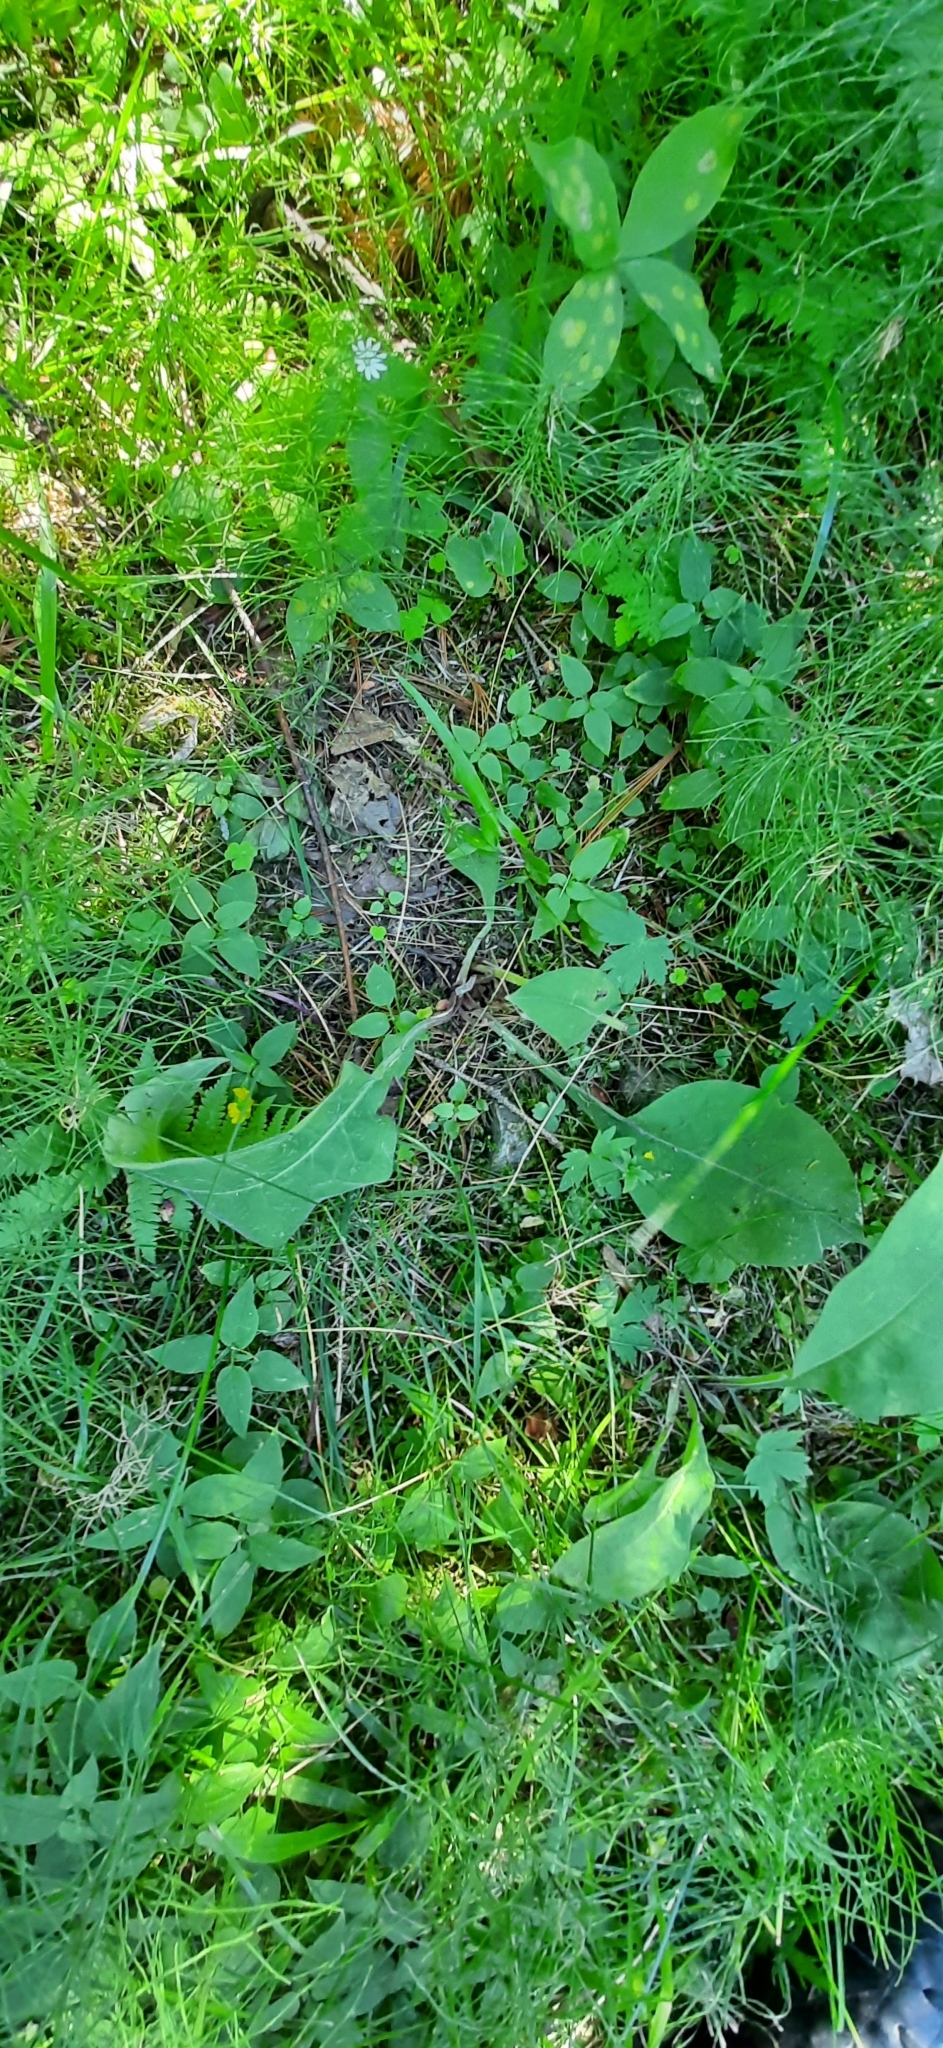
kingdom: Plantae
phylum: Tracheophyta
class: Magnoliopsida
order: Boraginales
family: Boraginaceae
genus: Pulmonaria
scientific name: Pulmonaria mollis
